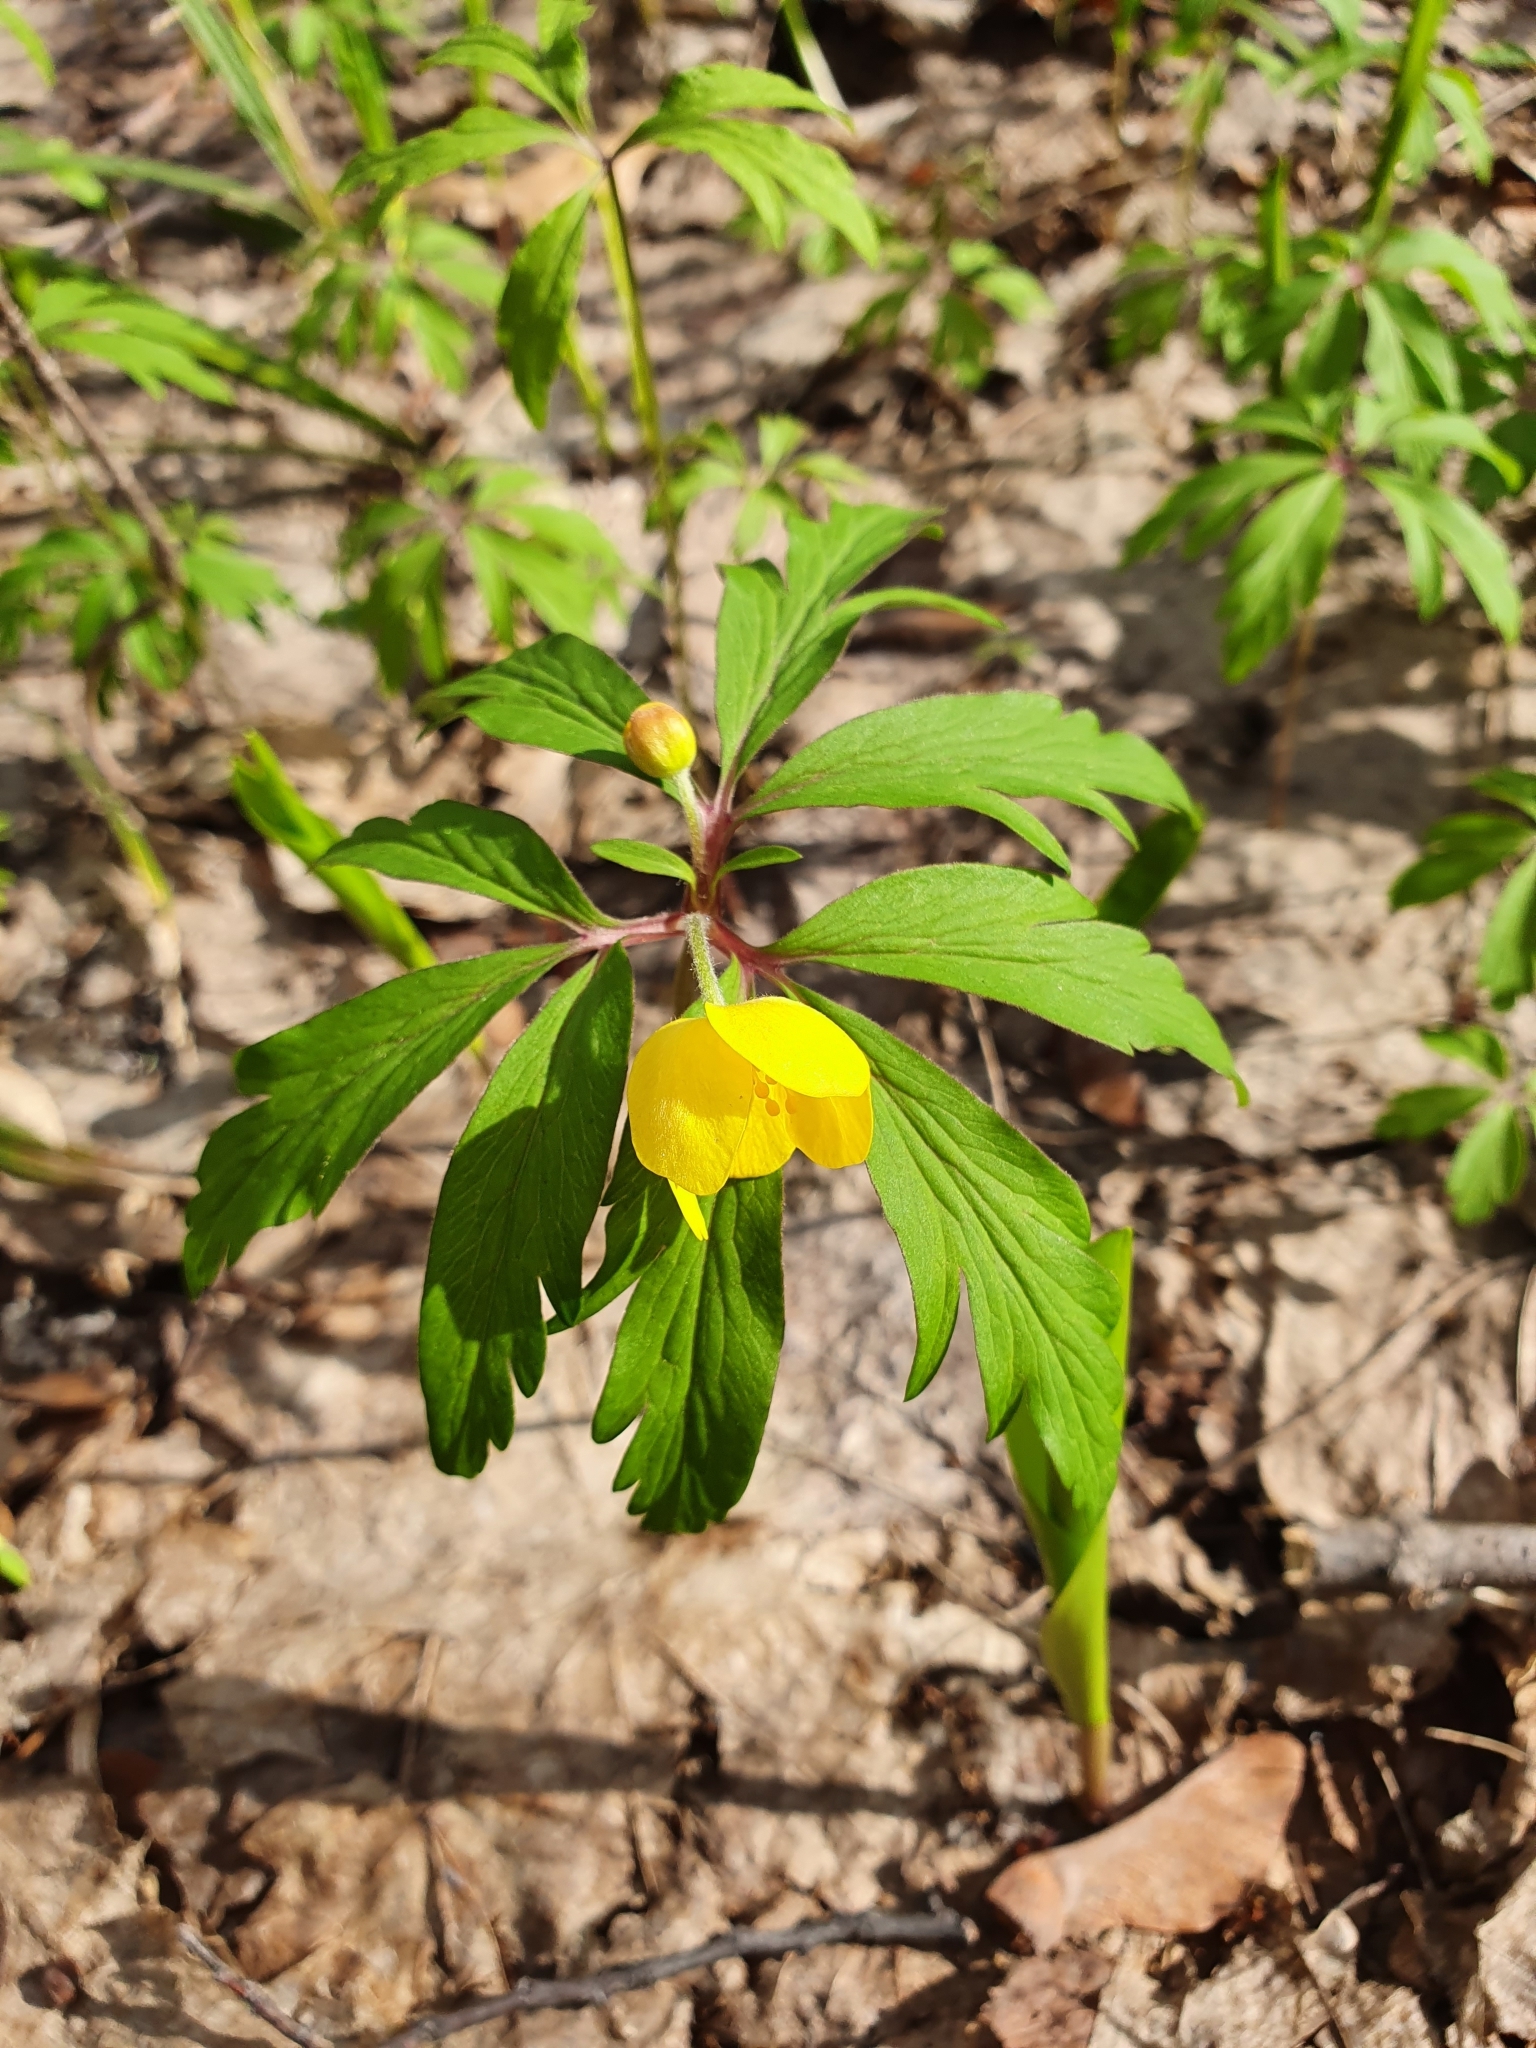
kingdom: Plantae
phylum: Tracheophyta
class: Magnoliopsida
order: Ranunculales
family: Ranunculaceae
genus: Anemone
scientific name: Anemone ranunculoides
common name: Yellow anemone
